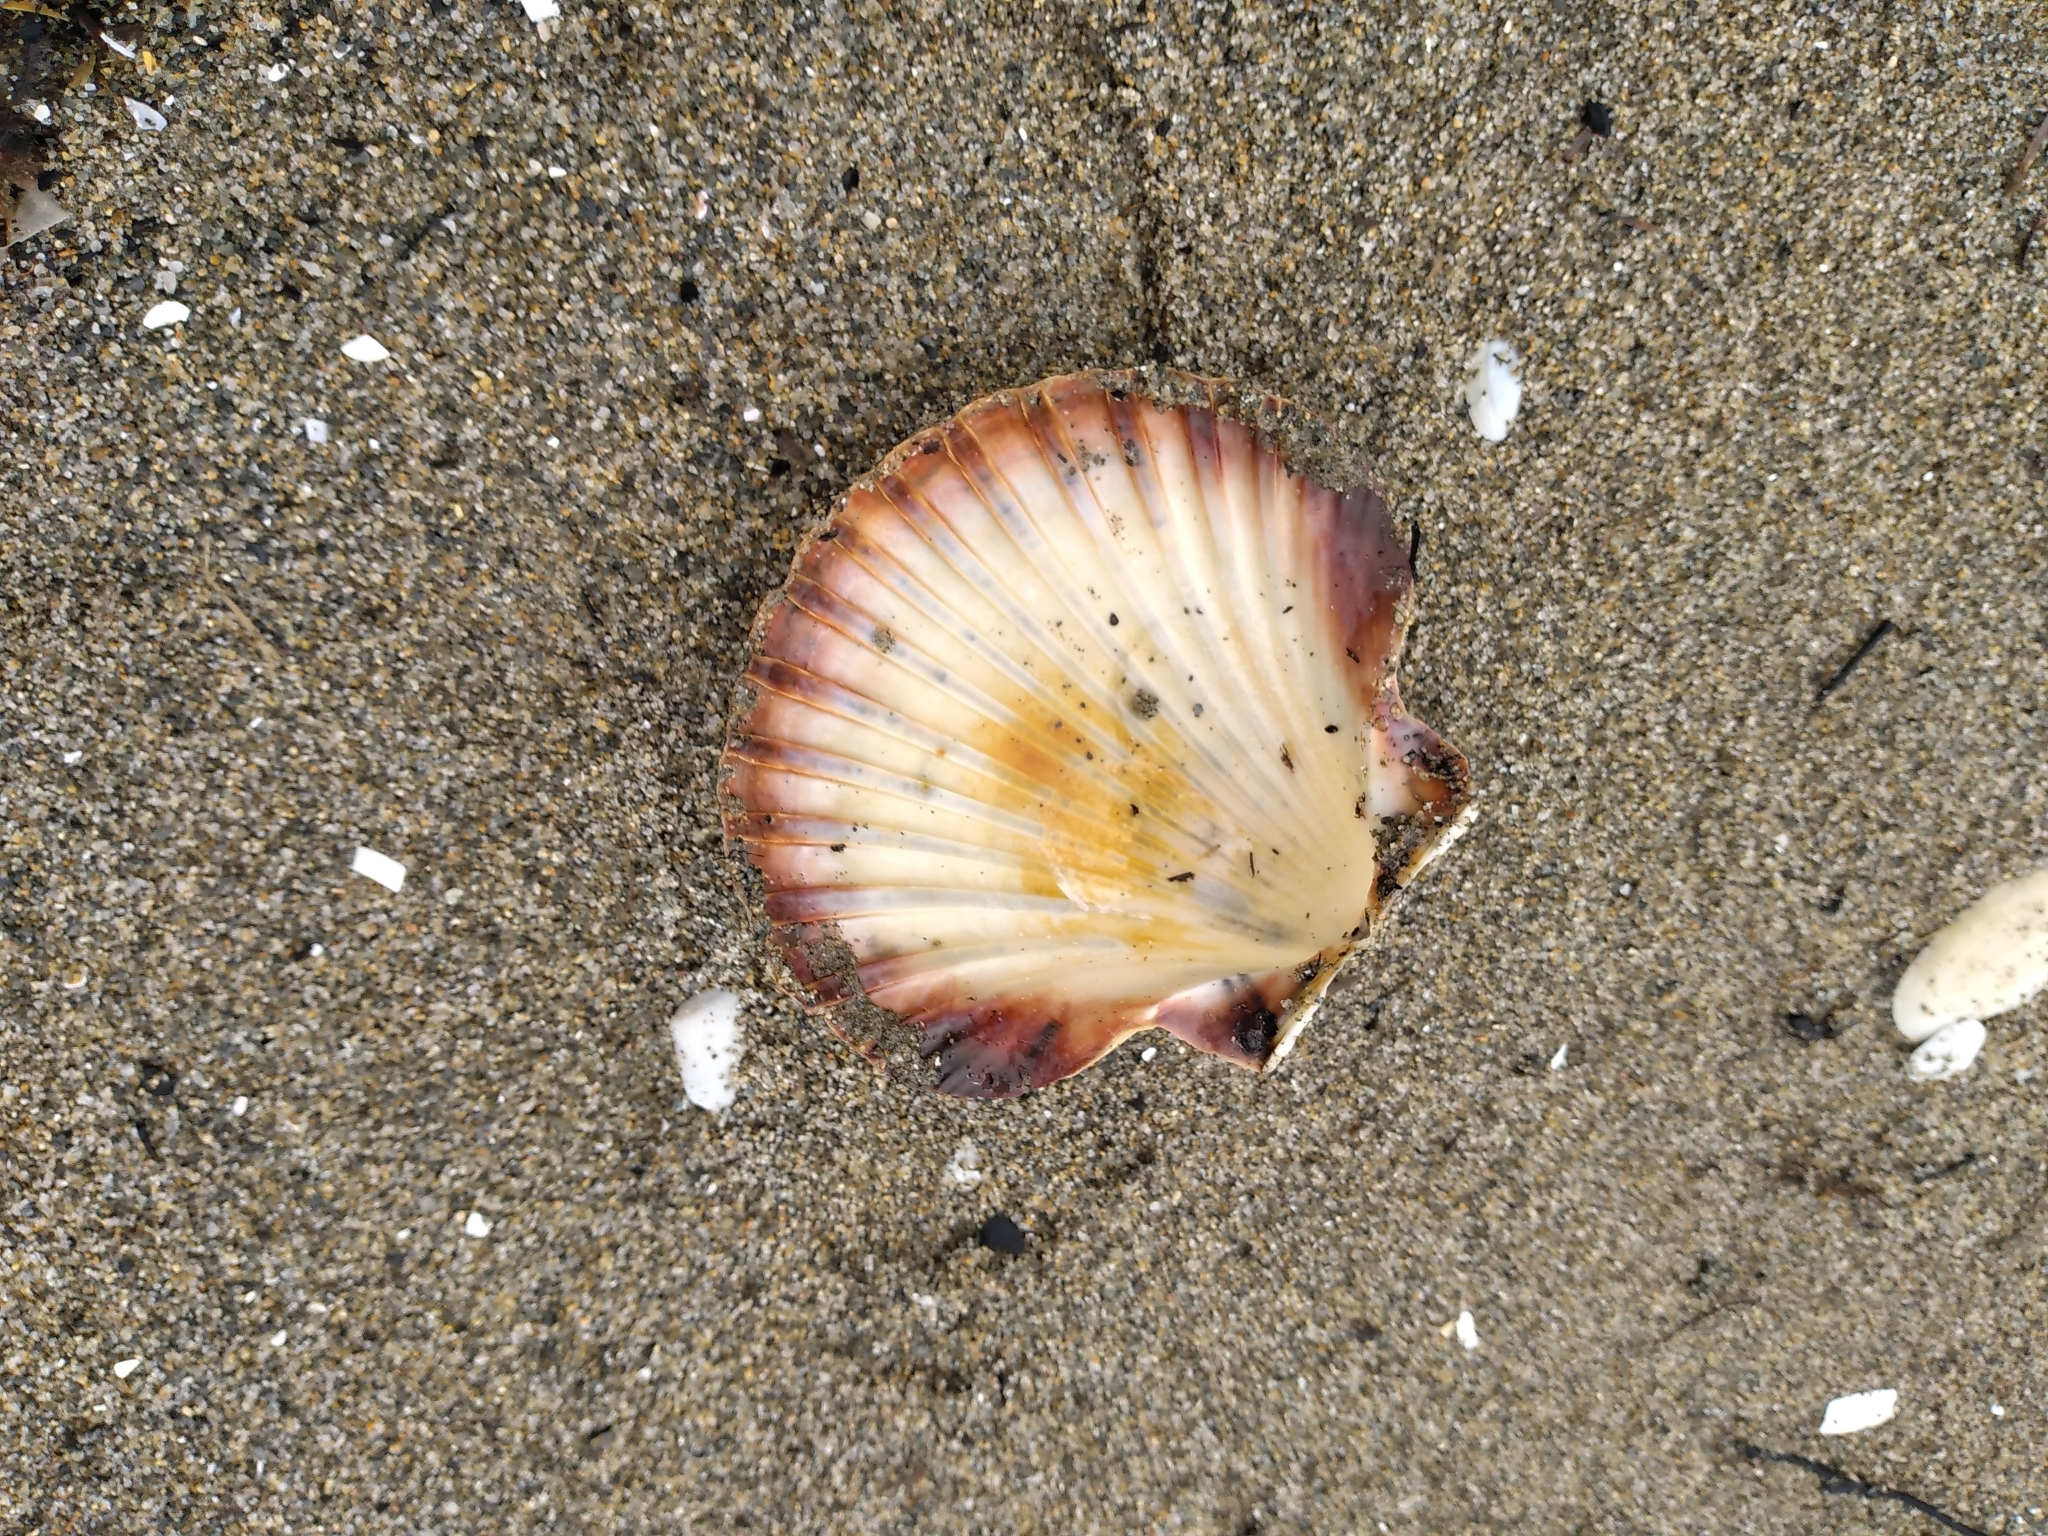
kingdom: Animalia
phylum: Mollusca
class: Bivalvia
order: Pectinida
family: Pectinidae
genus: Pecten
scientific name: Pecten novaezelandiae
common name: New zealand scallop
